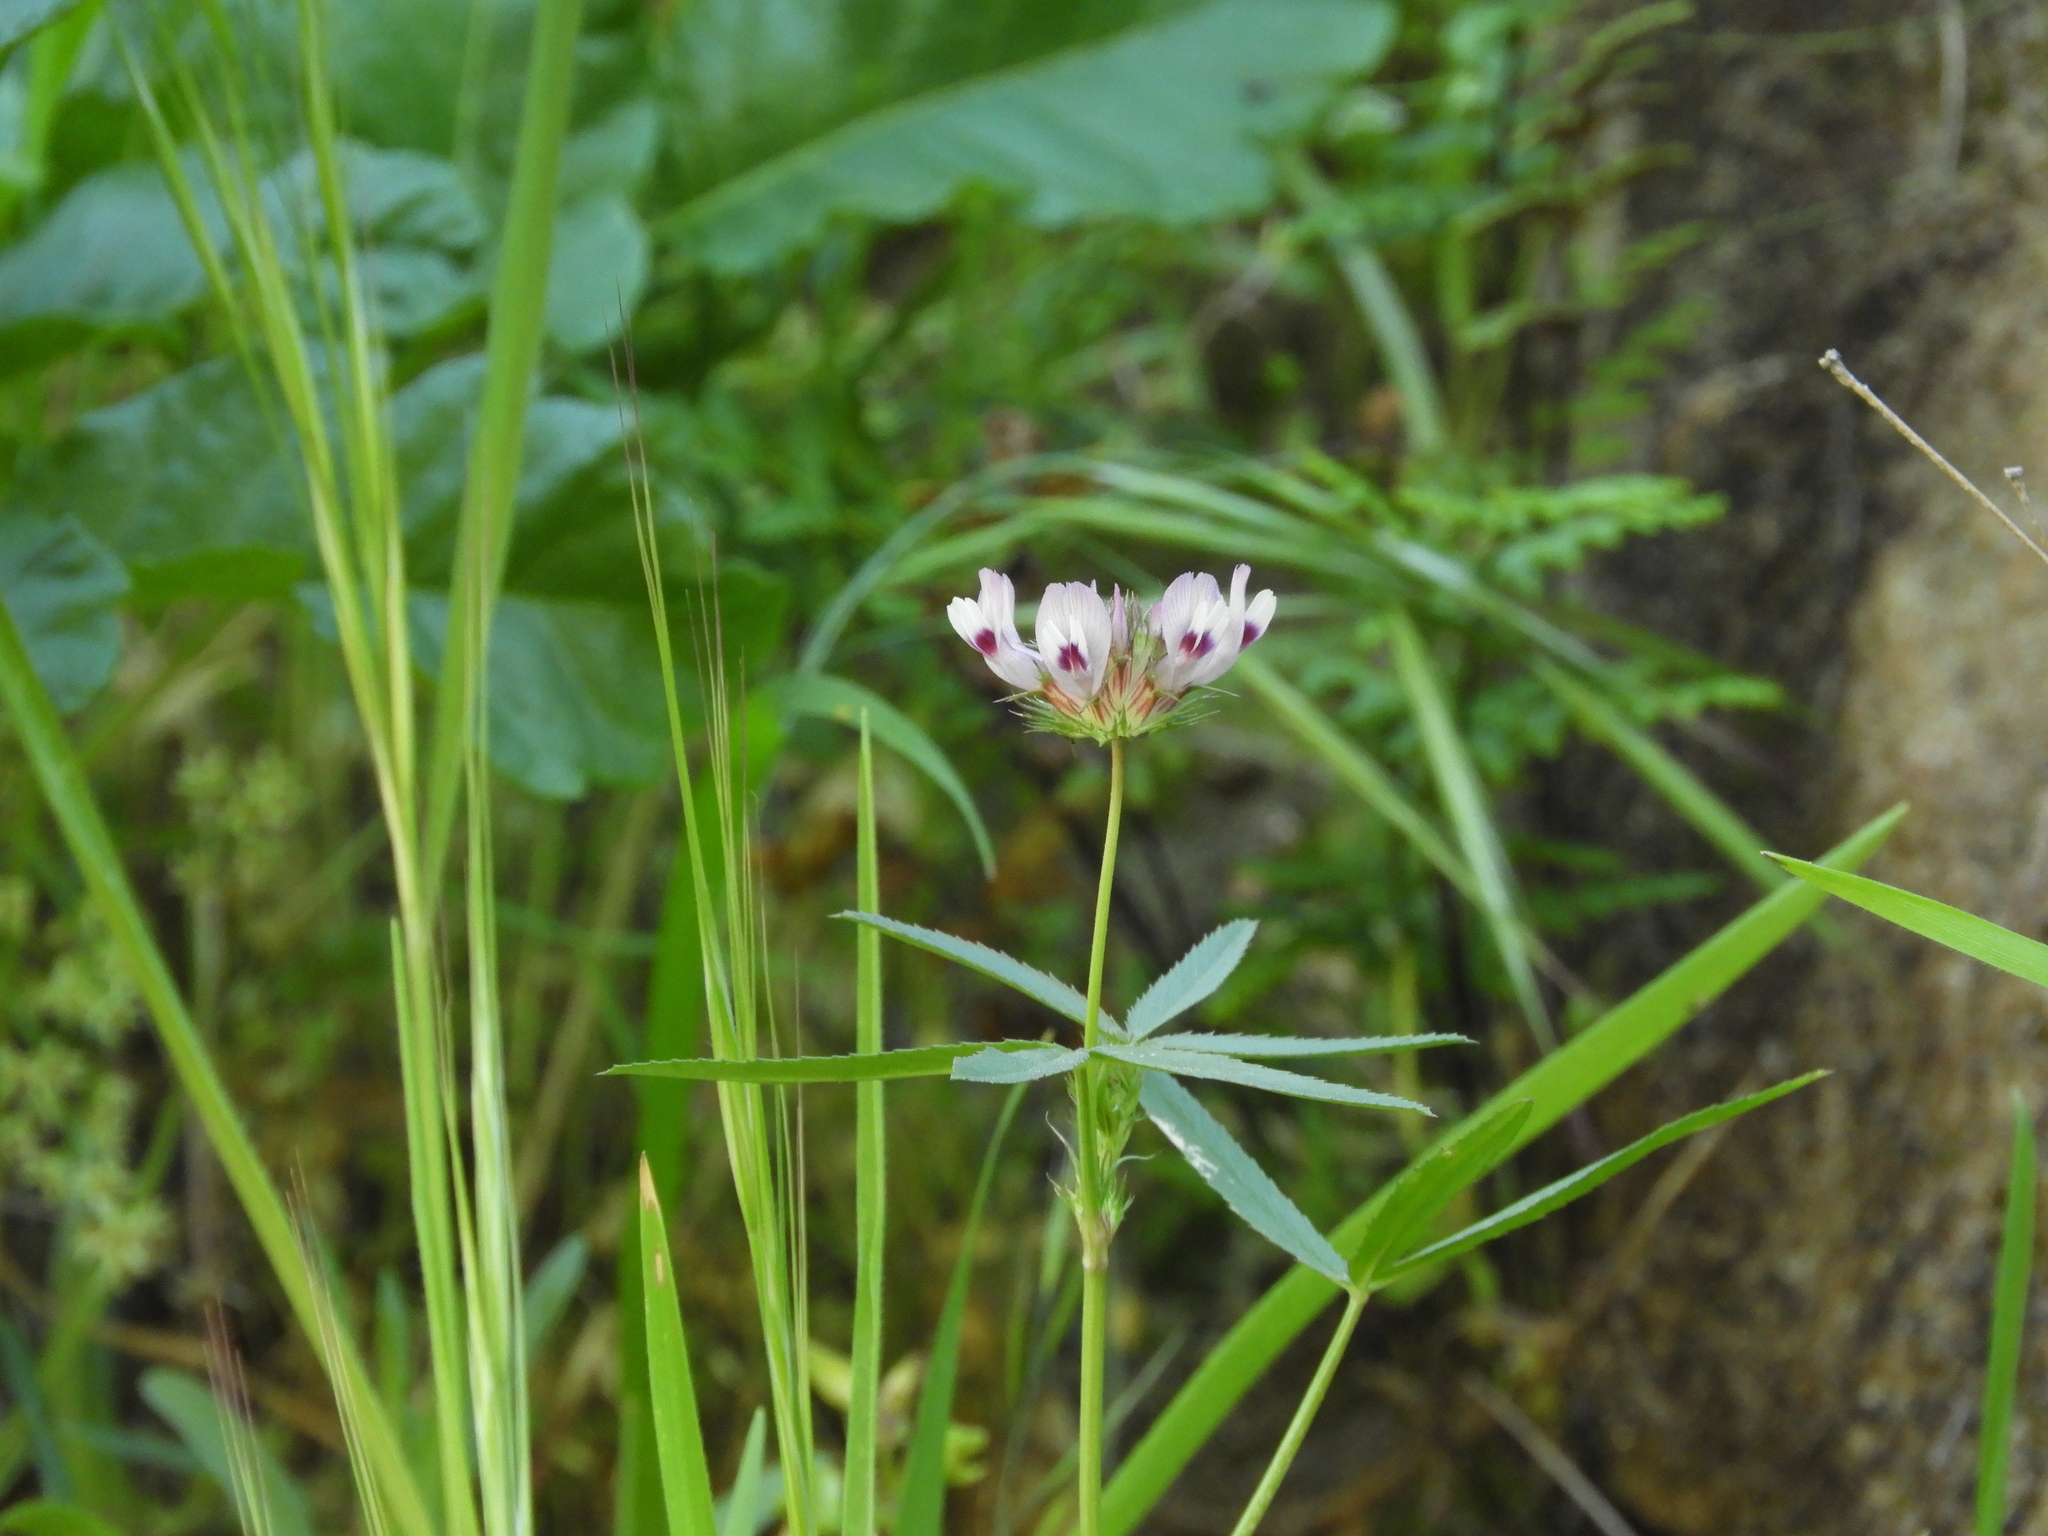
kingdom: Plantae
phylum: Tracheophyta
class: Magnoliopsida
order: Fabales
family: Fabaceae
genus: Trifolium
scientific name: Trifolium willdenovii
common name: Tomcat clover
